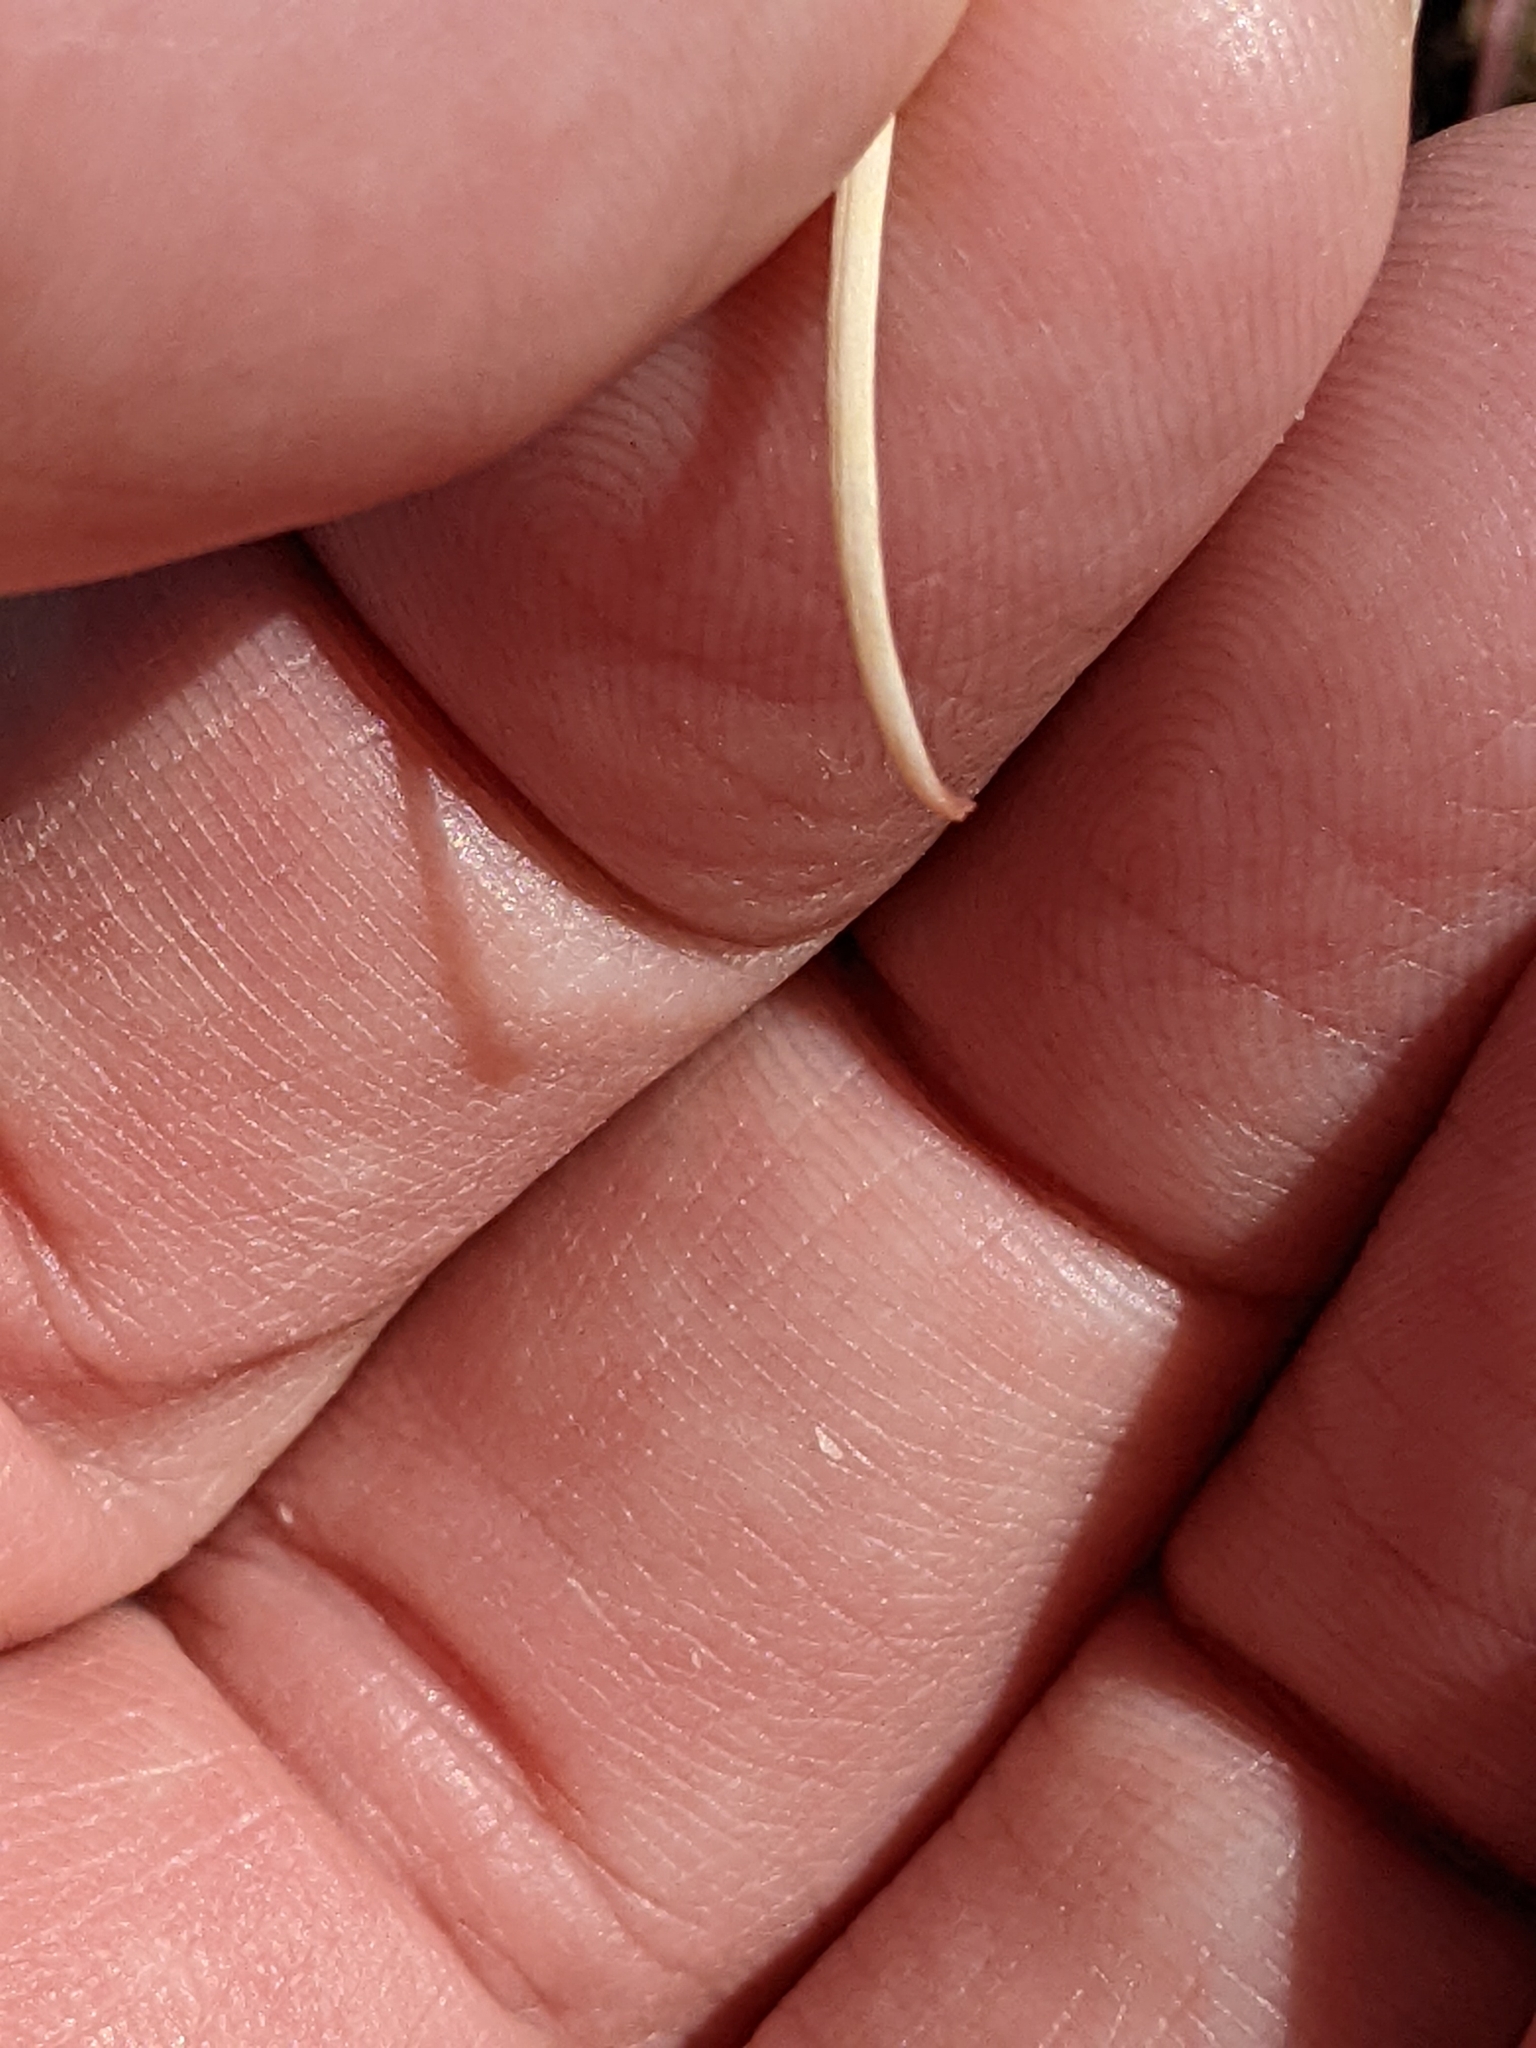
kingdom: Plantae
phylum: Tracheophyta
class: Magnoliopsida
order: Caryophyllales
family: Cactaceae
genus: Ferocactus
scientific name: Ferocactus uncinatus
